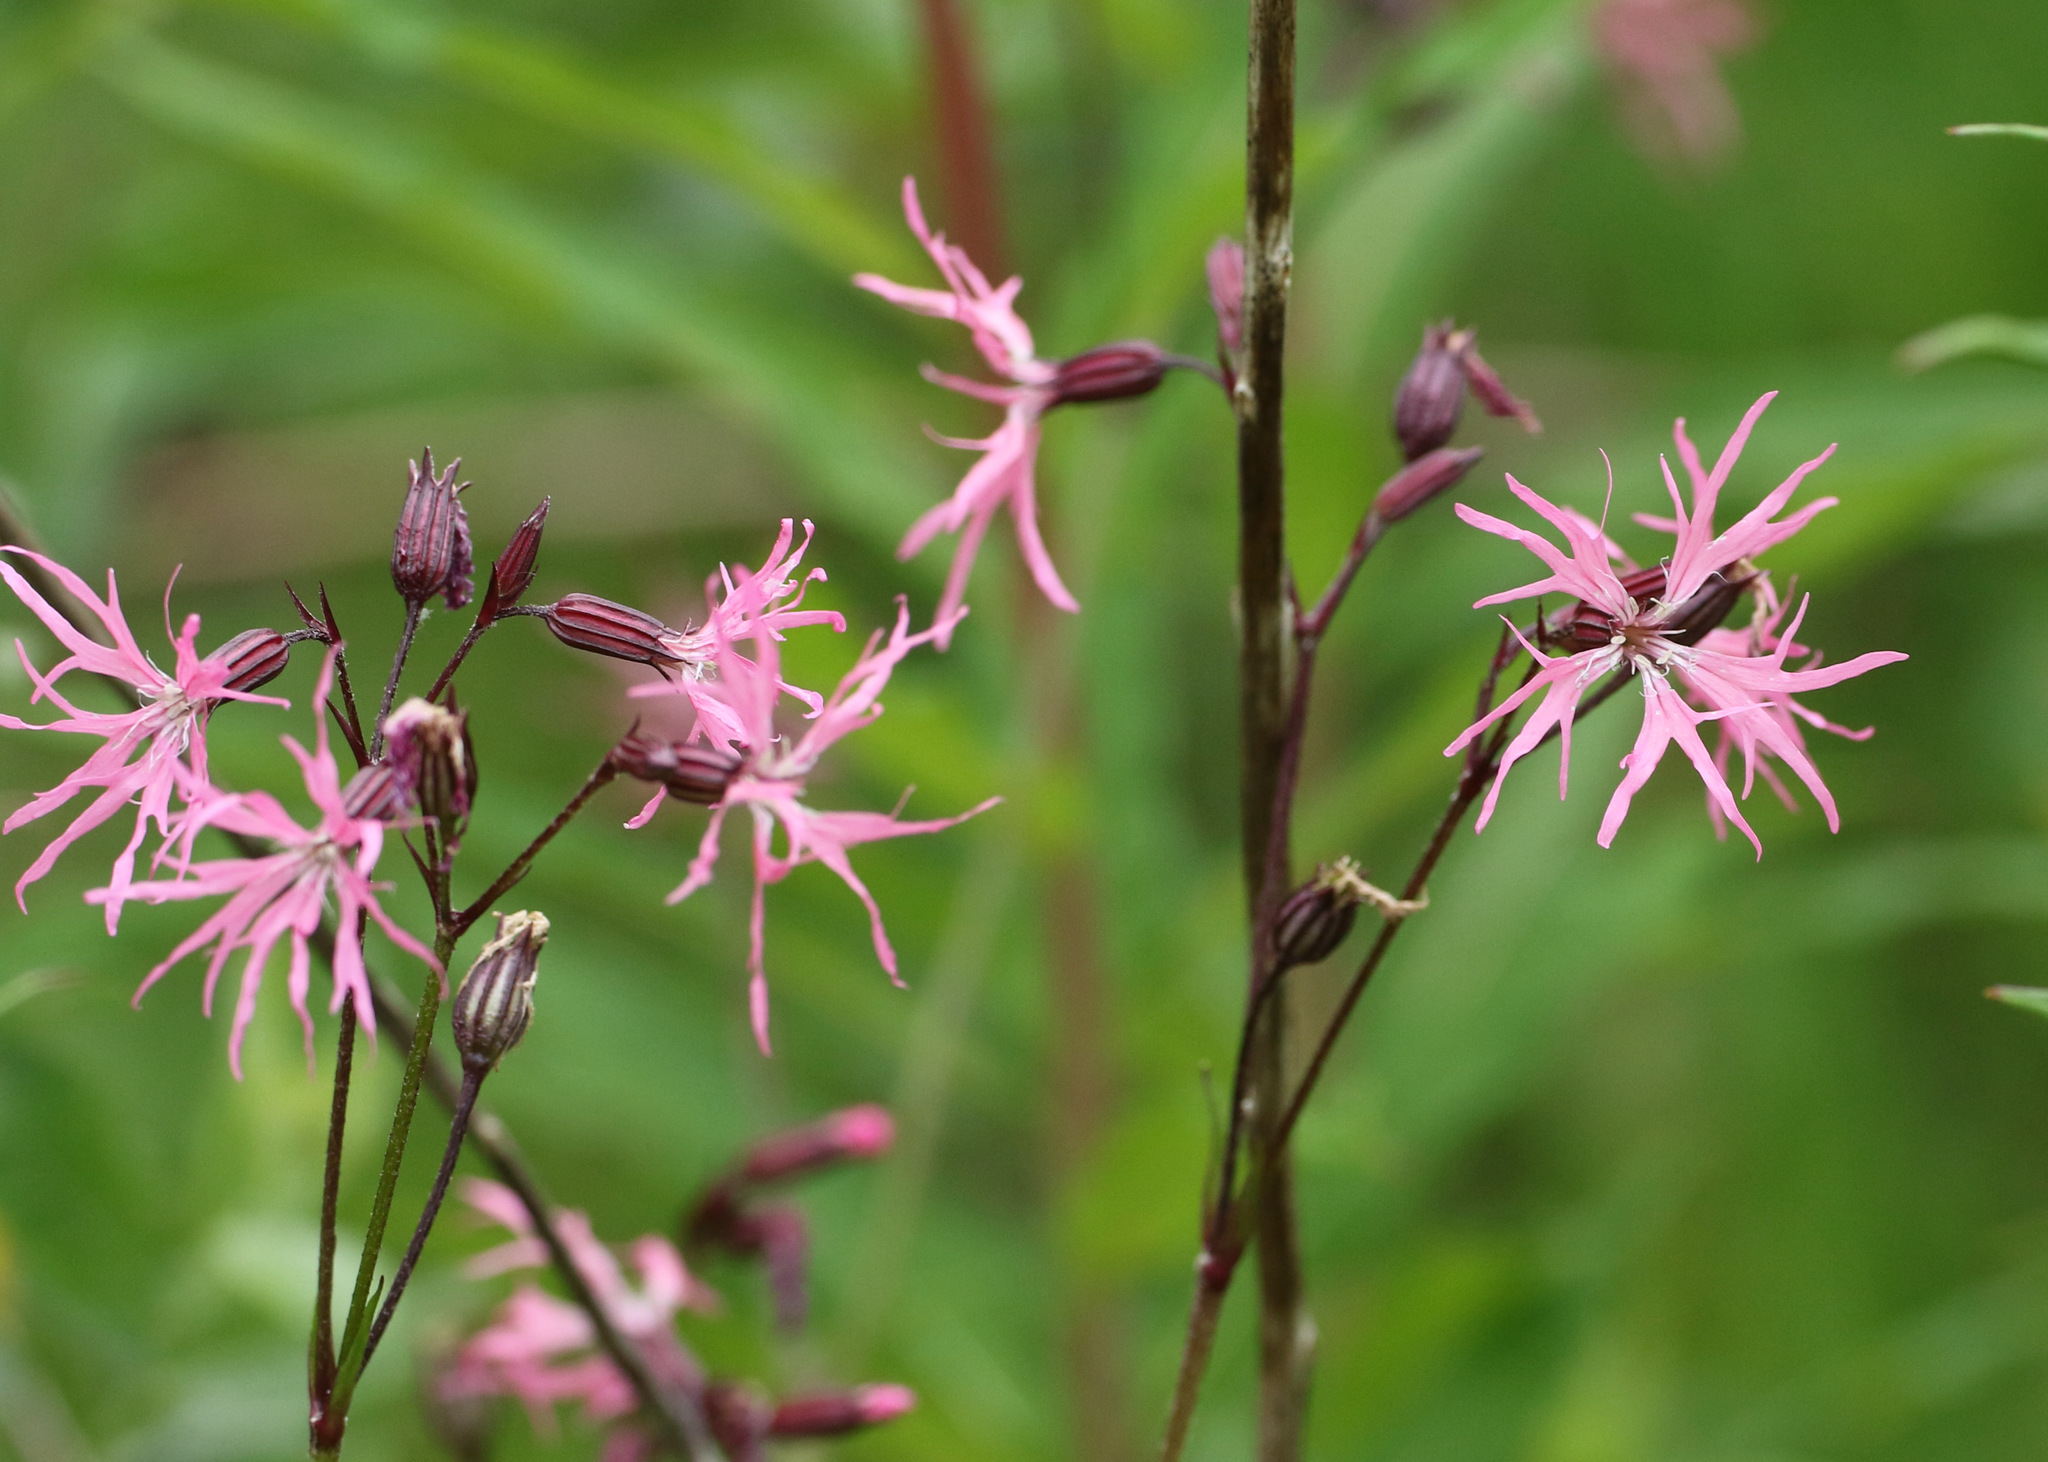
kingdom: Plantae
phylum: Tracheophyta
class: Magnoliopsida
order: Caryophyllales
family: Caryophyllaceae
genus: Silene
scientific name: Silene flos-cuculi
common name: Ragged-robin
